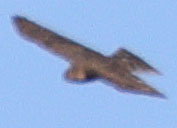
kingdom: Animalia
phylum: Chordata
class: Aves
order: Accipitriformes
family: Accipitridae
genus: Accipiter
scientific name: Accipiter striatus
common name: Sharp-shinned hawk
